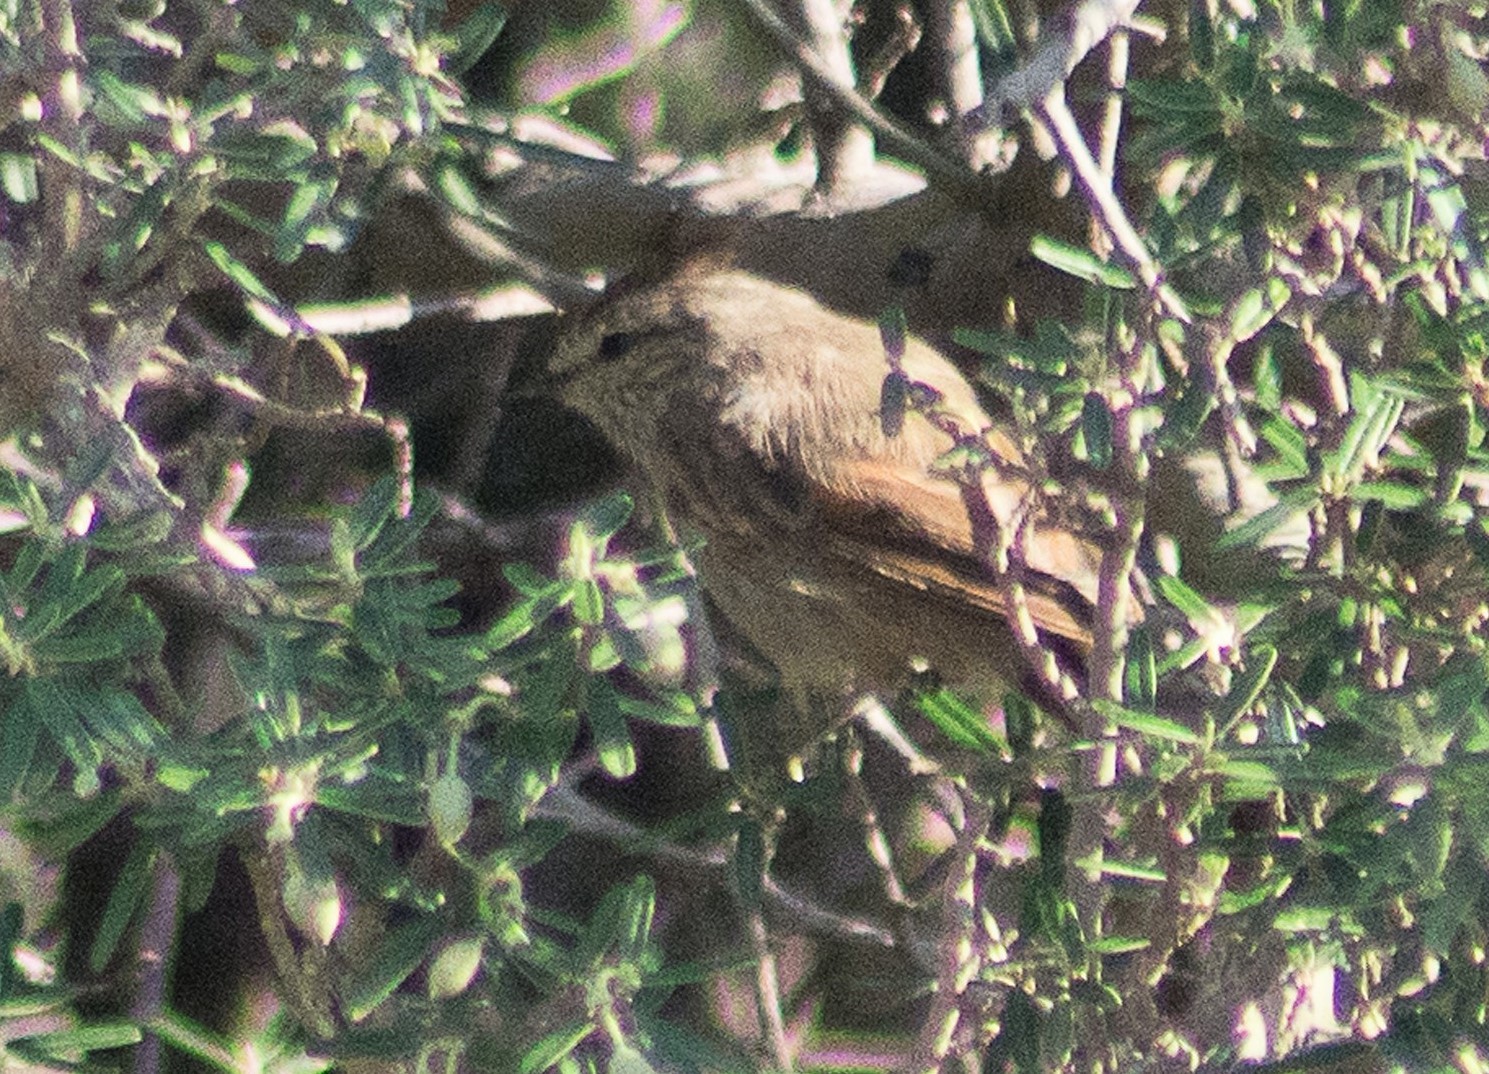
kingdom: Animalia
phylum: Chordata
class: Aves
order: Passeriformes
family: Furnariidae
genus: Leptasthenura
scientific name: Leptasthenura aegithaloides
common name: Plain-mantled tit-spinetail
